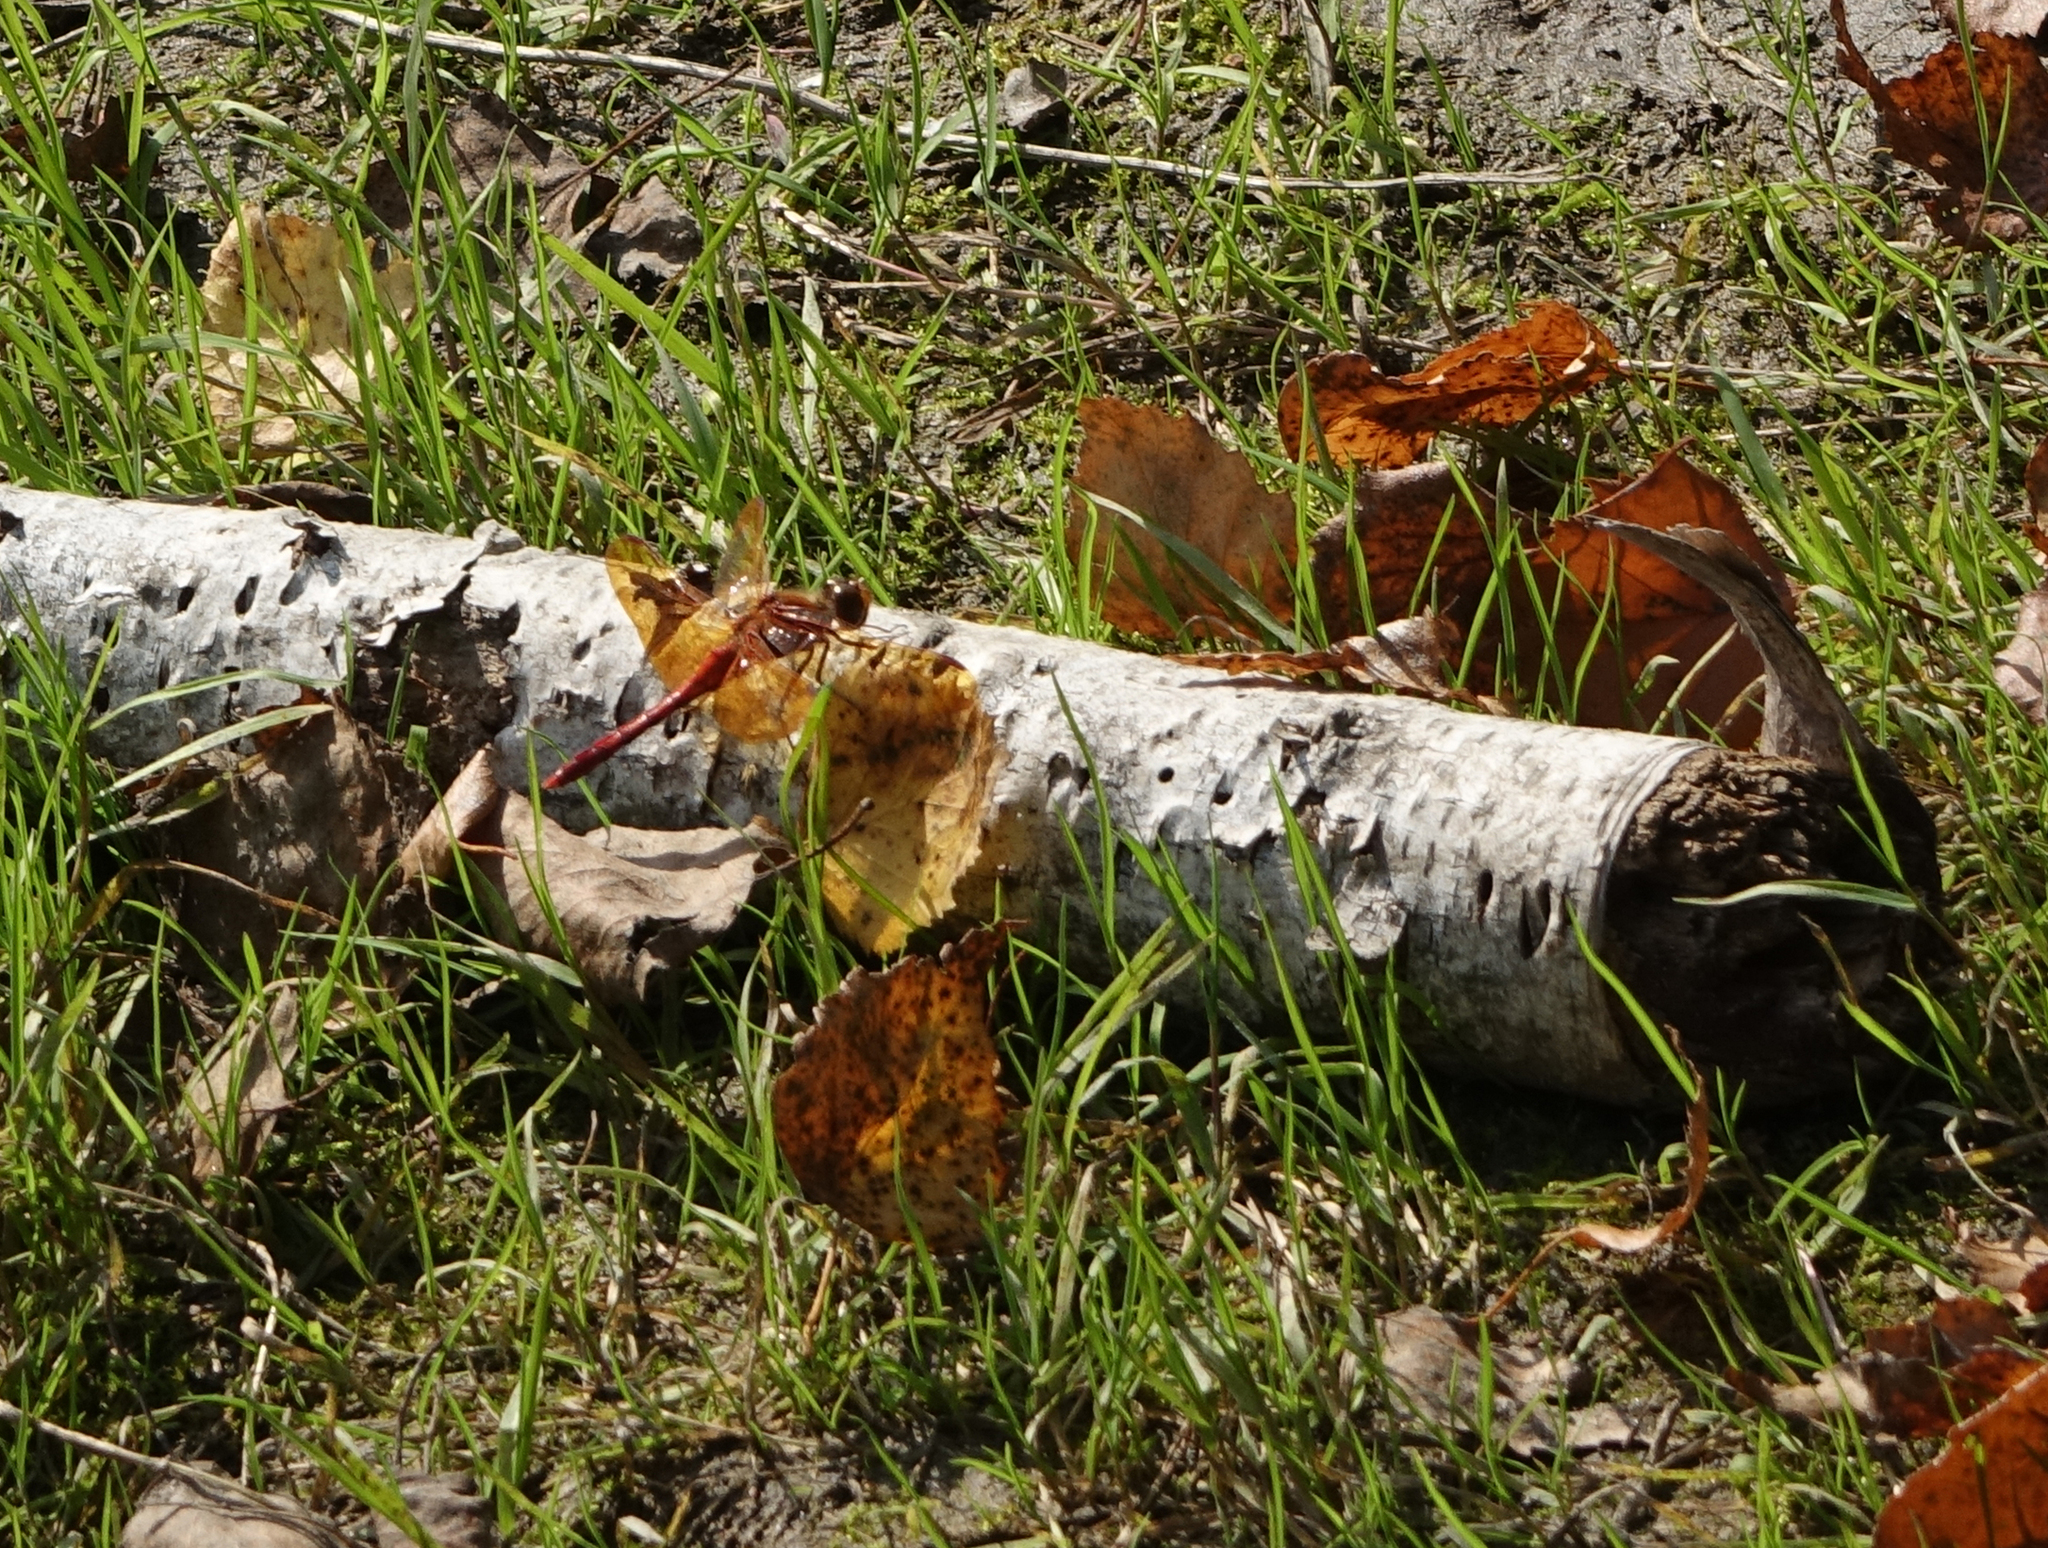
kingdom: Animalia
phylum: Arthropoda
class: Insecta
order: Odonata
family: Libellulidae
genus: Sympetrum
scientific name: Sympetrum croceolum
